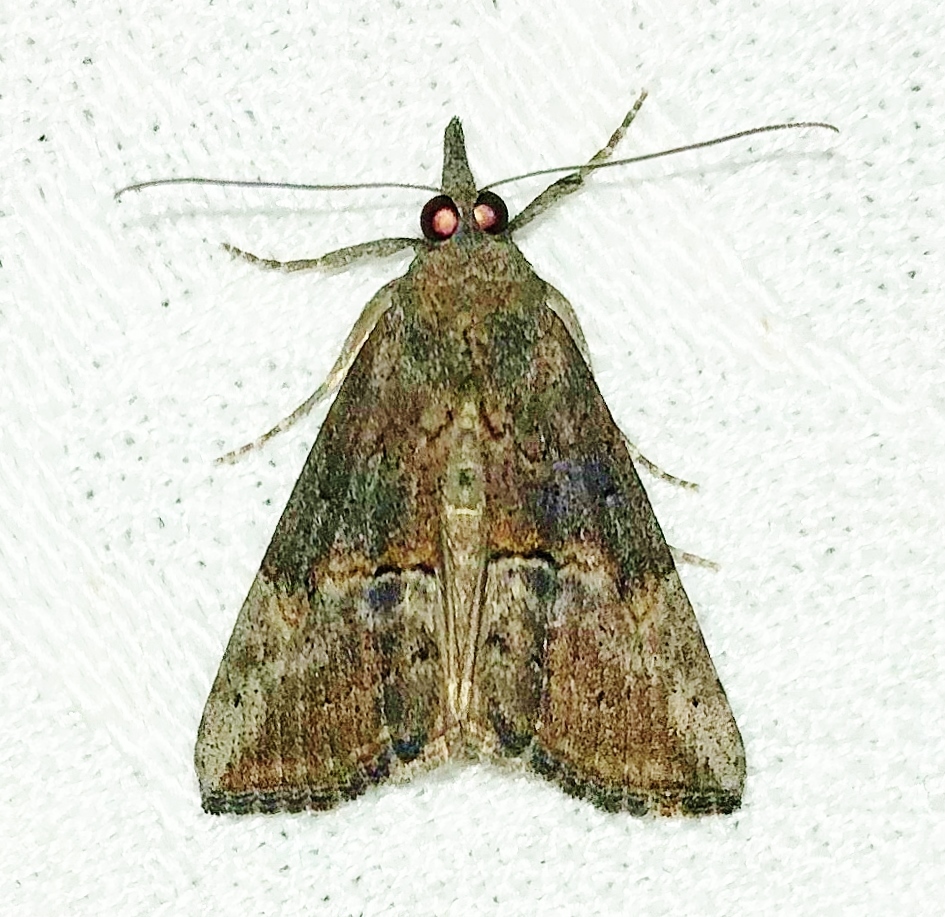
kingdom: Animalia
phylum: Arthropoda
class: Insecta
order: Lepidoptera
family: Erebidae
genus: Hypena
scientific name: Hypena scabra
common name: Green cloverworm
